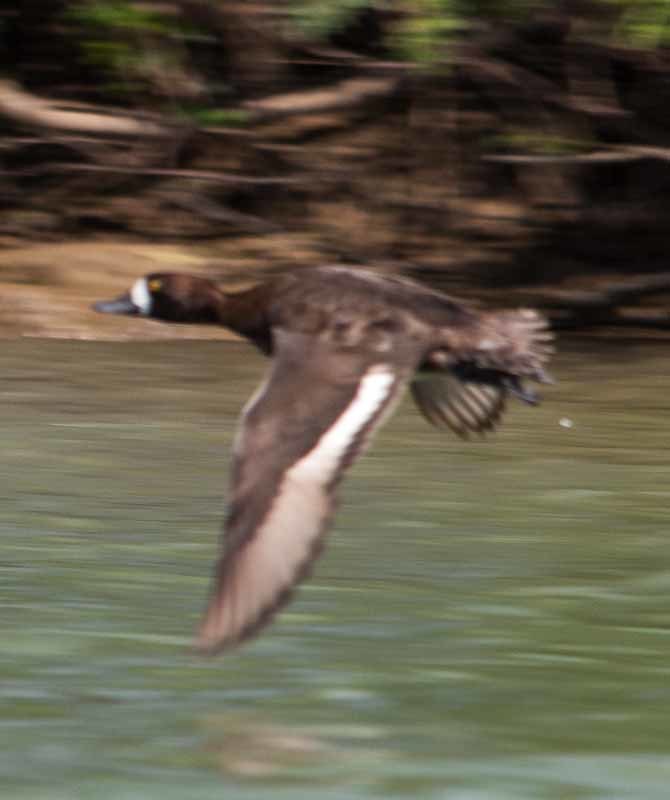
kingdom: Animalia
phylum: Chordata
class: Aves
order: Anseriformes
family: Anatidae
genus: Aythya
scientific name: Aythya affinis
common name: Lesser scaup
